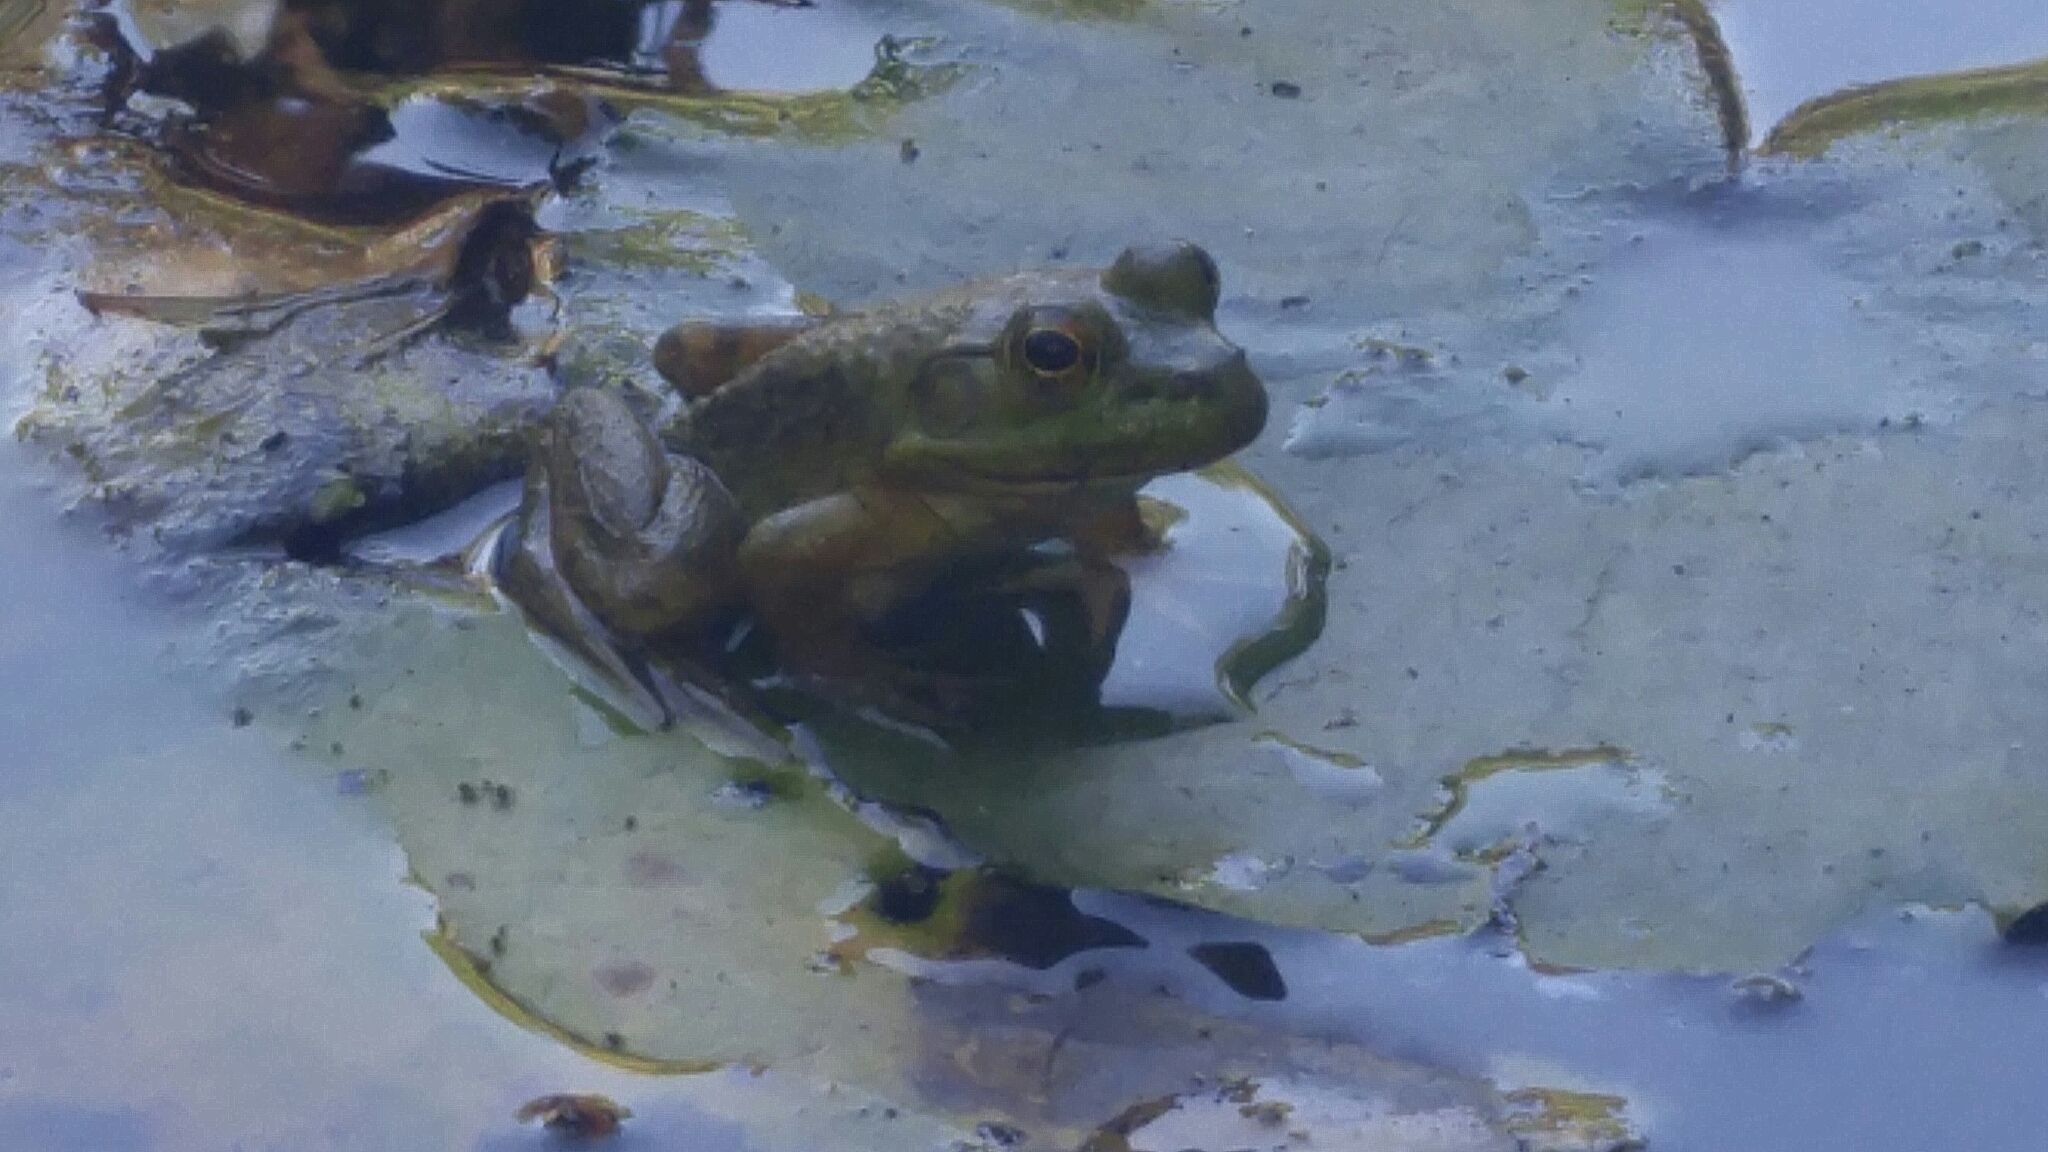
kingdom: Animalia
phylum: Chordata
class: Amphibia
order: Anura
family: Ranidae
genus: Lithobates
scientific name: Lithobates catesbeianus
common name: American bullfrog
